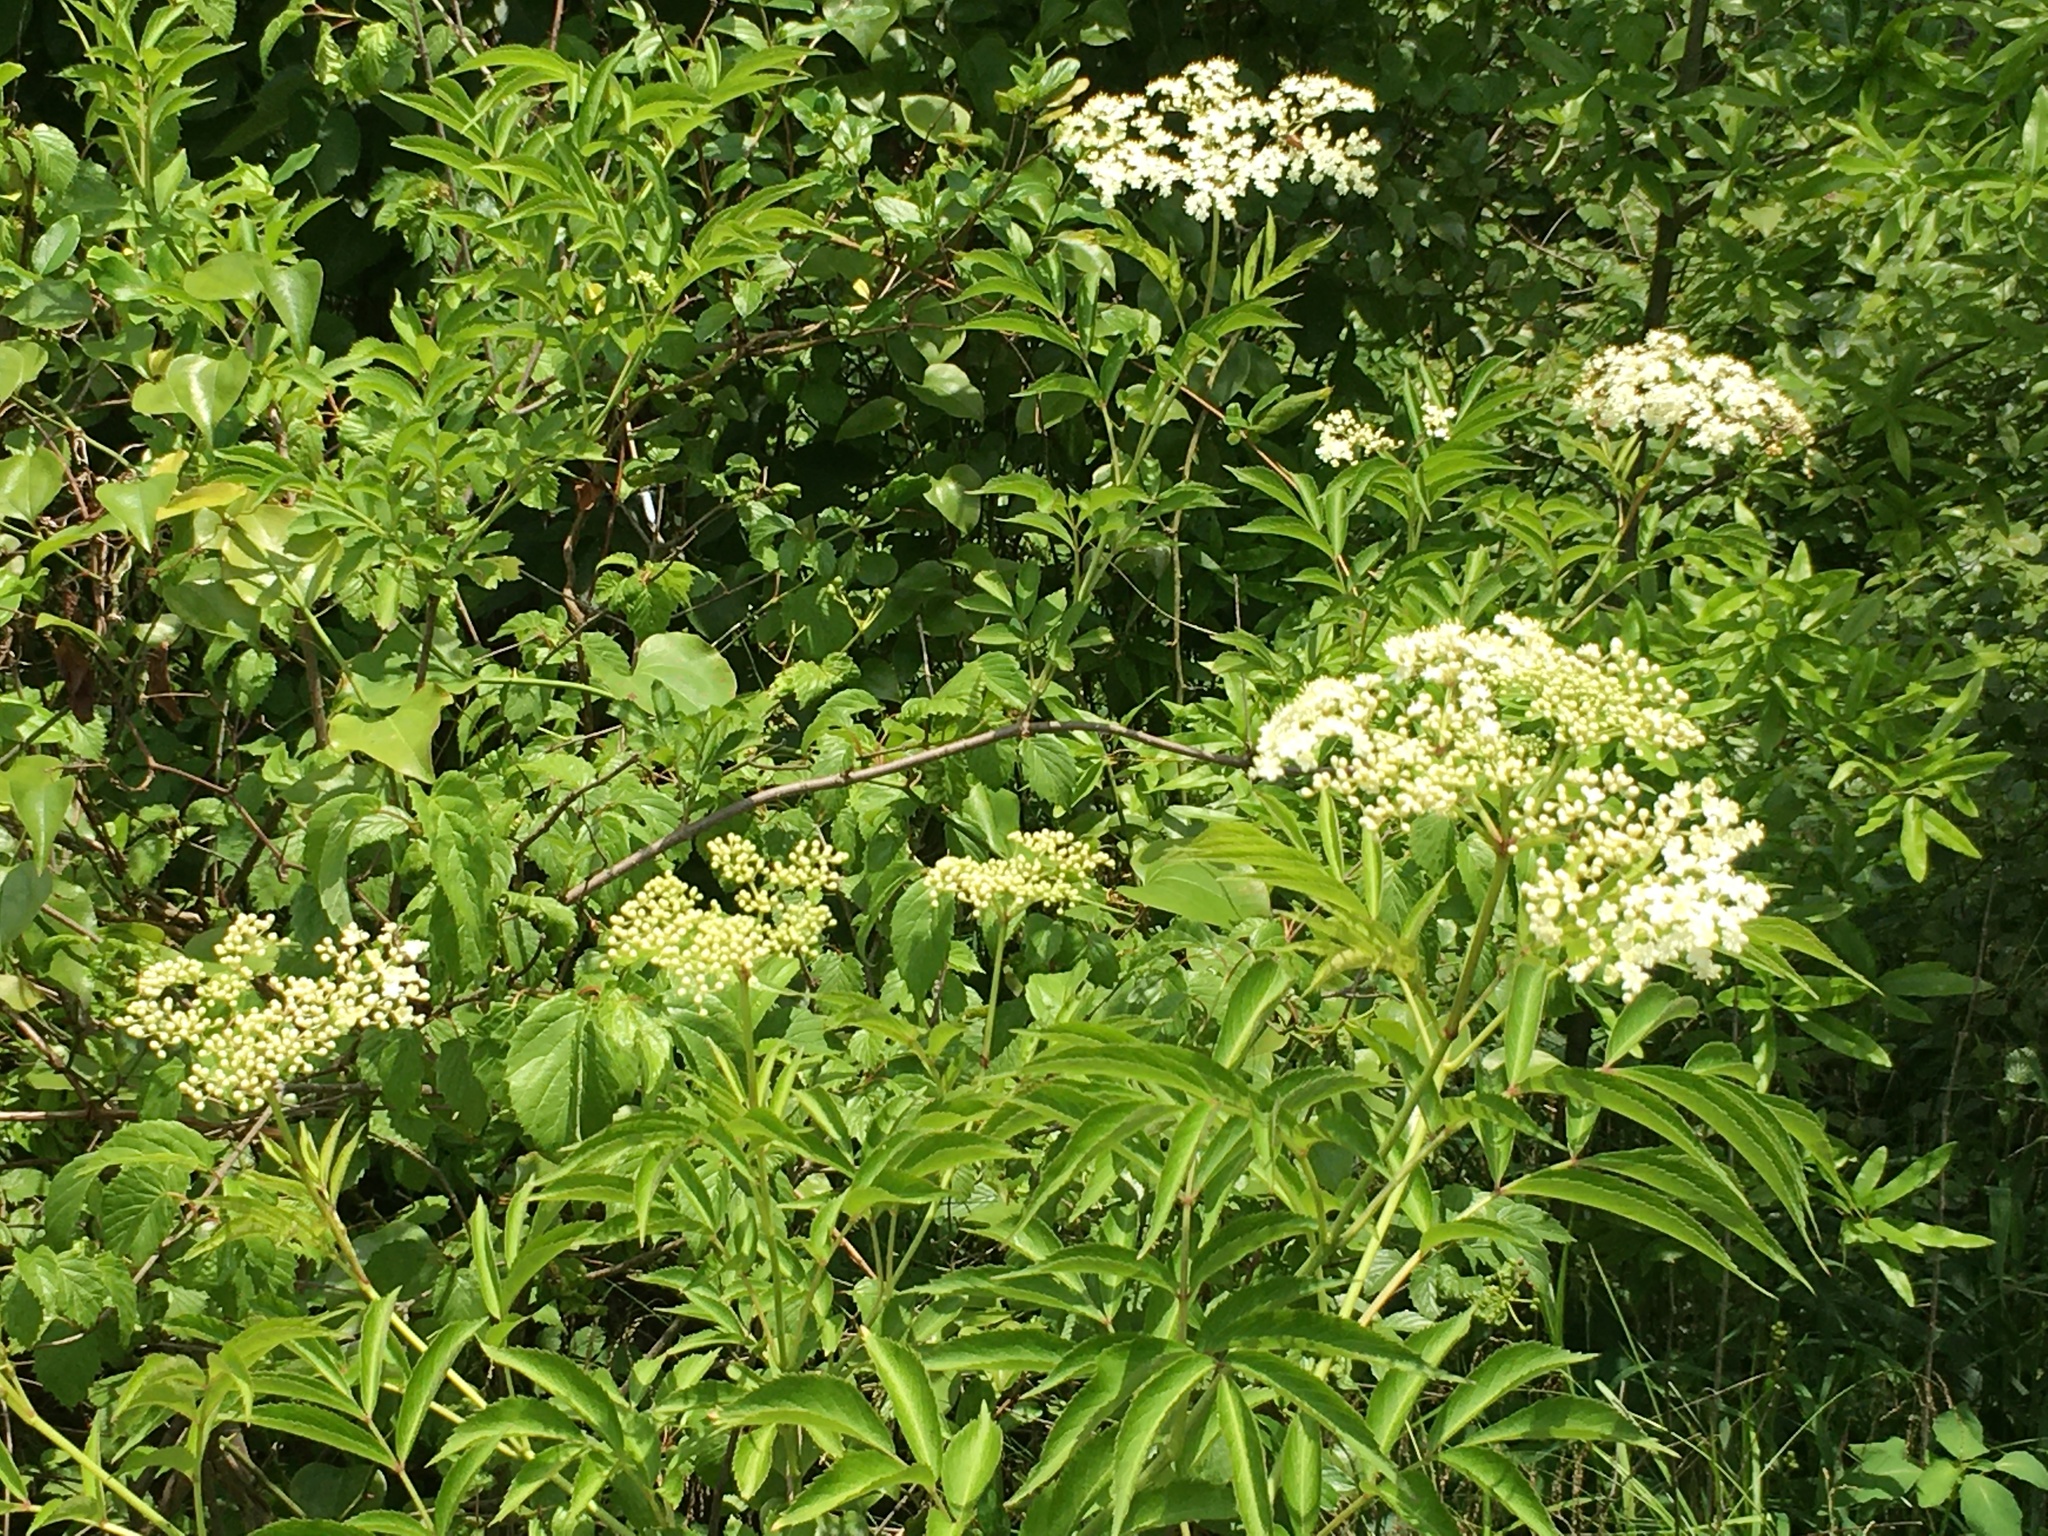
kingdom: Plantae
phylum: Tracheophyta
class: Magnoliopsida
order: Dipsacales
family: Viburnaceae
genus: Sambucus
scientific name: Sambucus canadensis
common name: American elder
